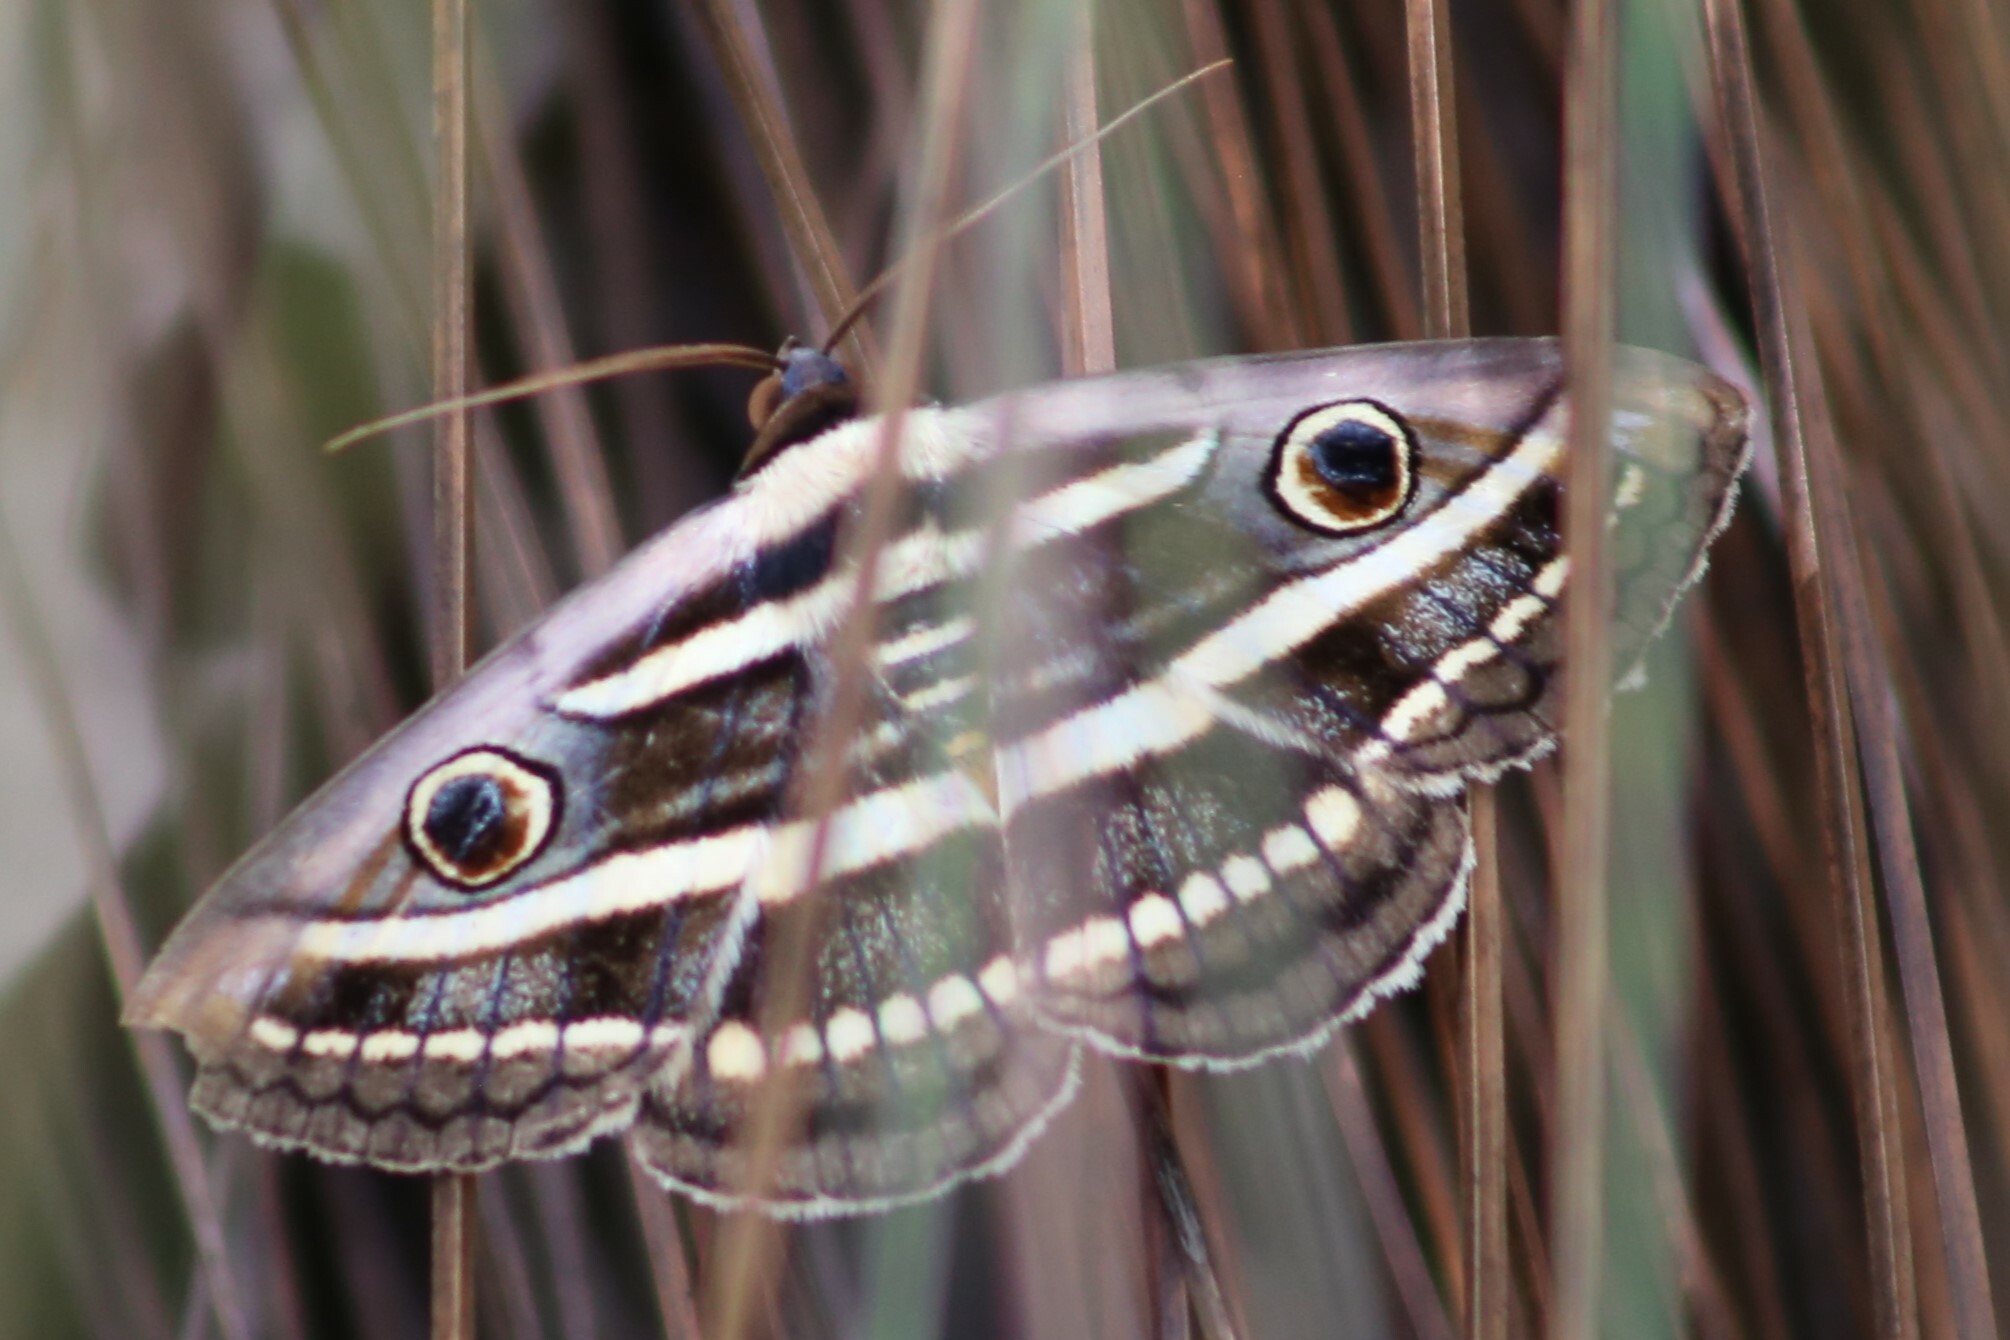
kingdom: Animalia
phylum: Arthropoda
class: Insecta
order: Lepidoptera
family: Erebidae
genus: Donuca
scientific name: Donuca orbigera
